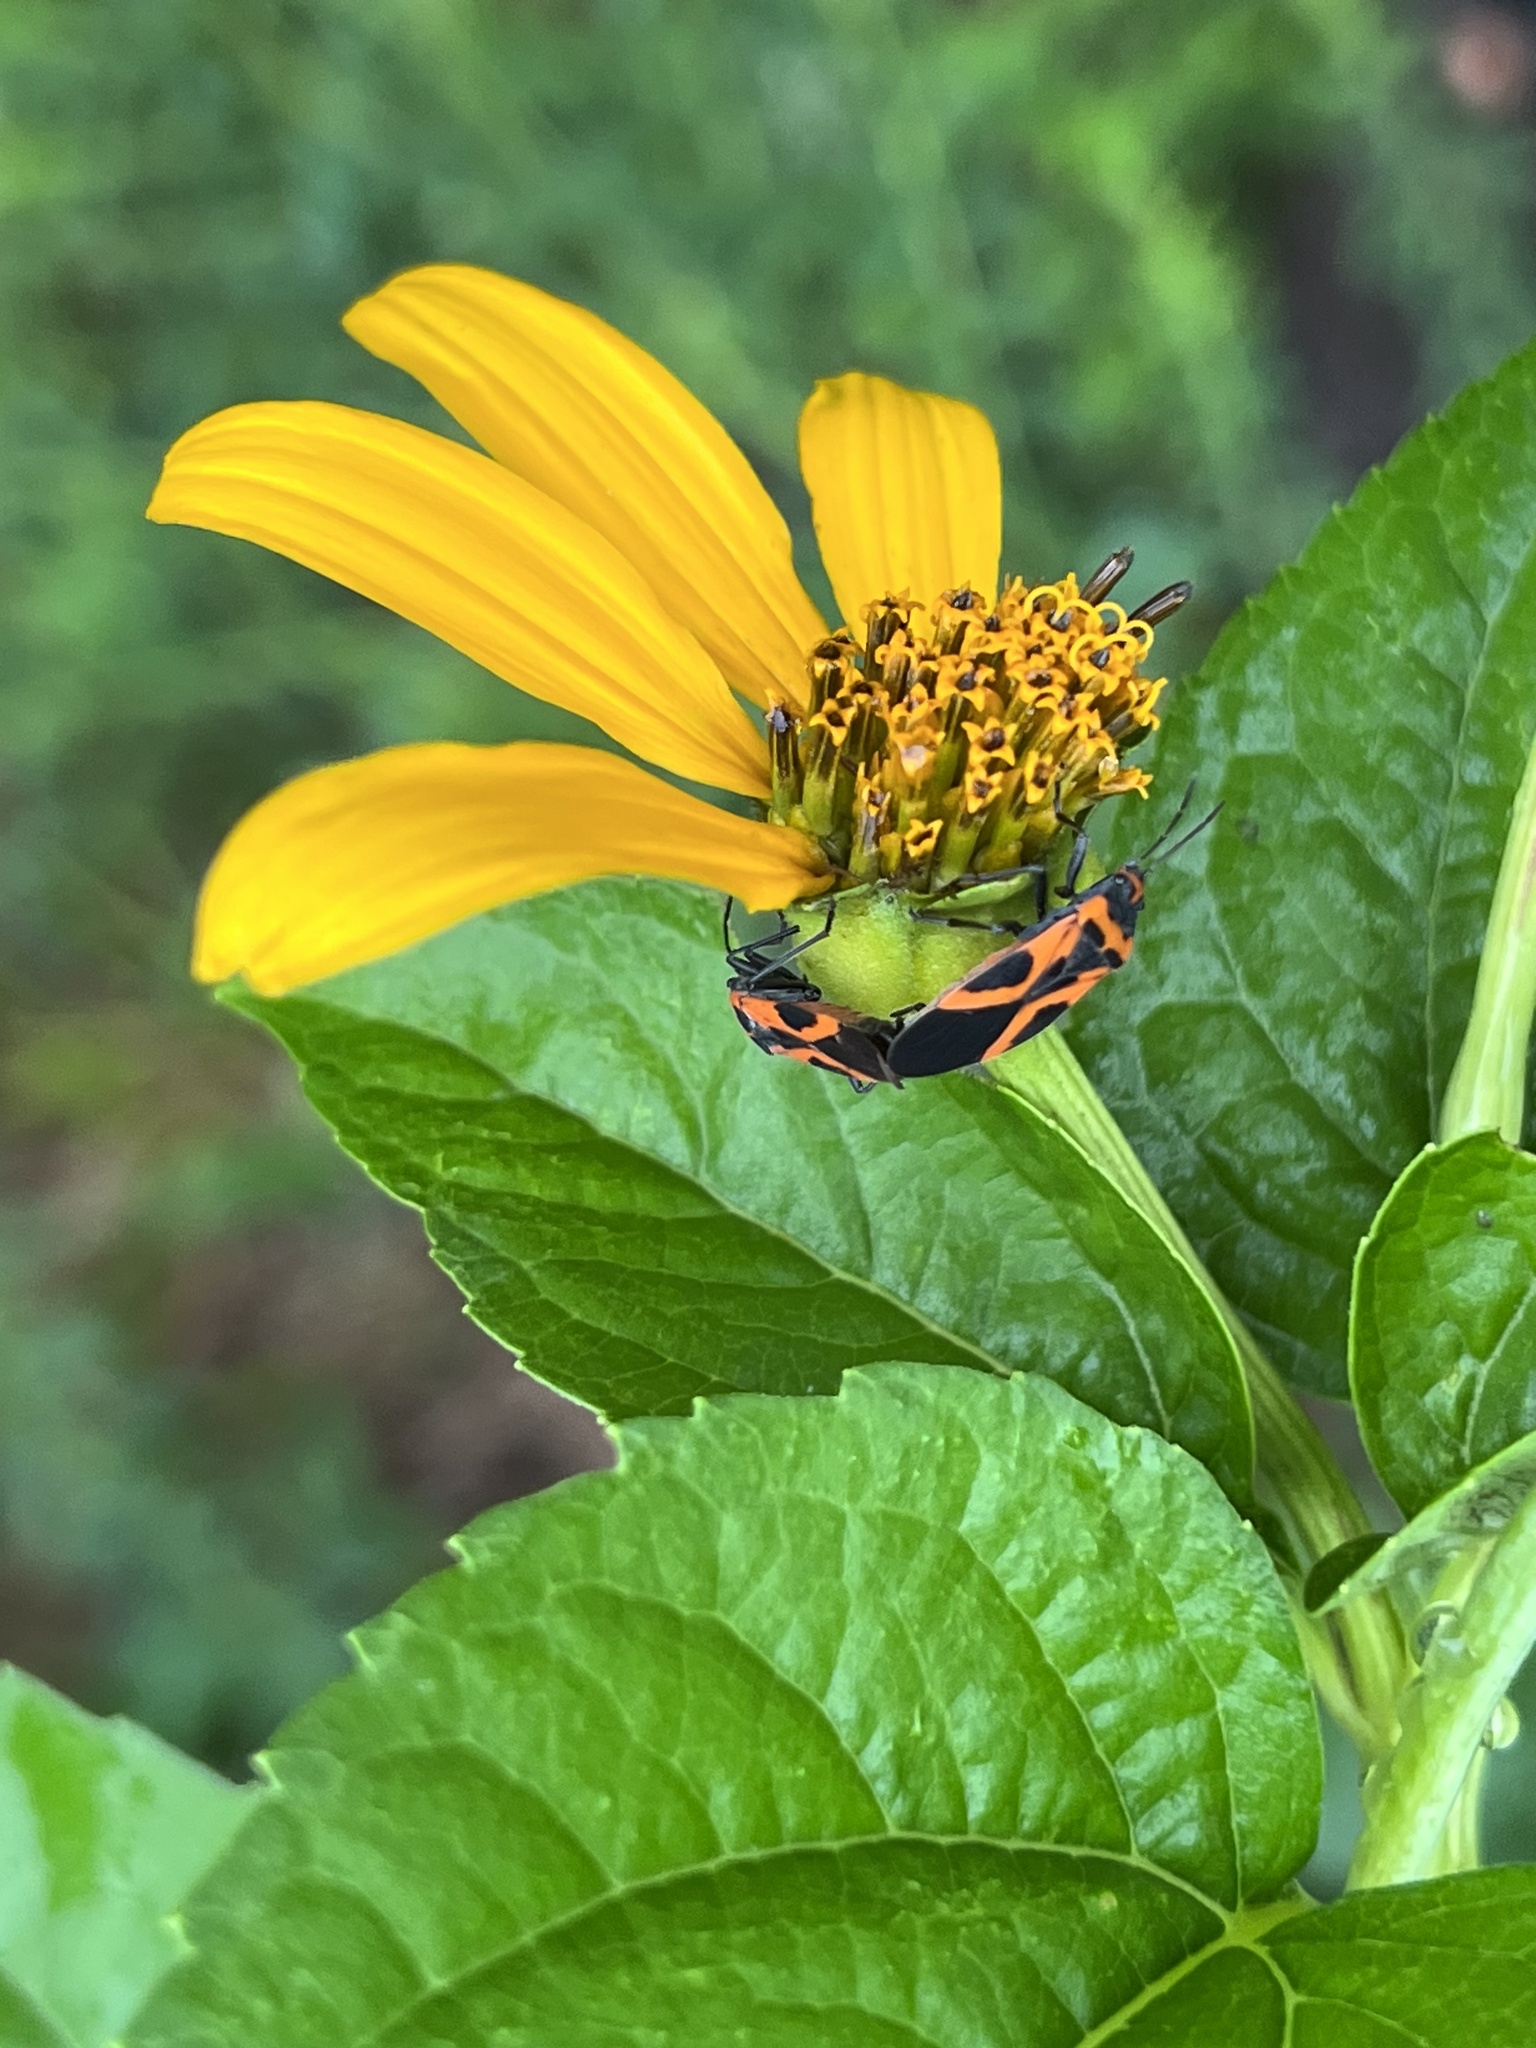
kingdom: Animalia
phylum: Arthropoda
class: Insecta
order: Hemiptera
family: Lygaeidae
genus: Lygaeus
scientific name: Lygaeus turcicus
